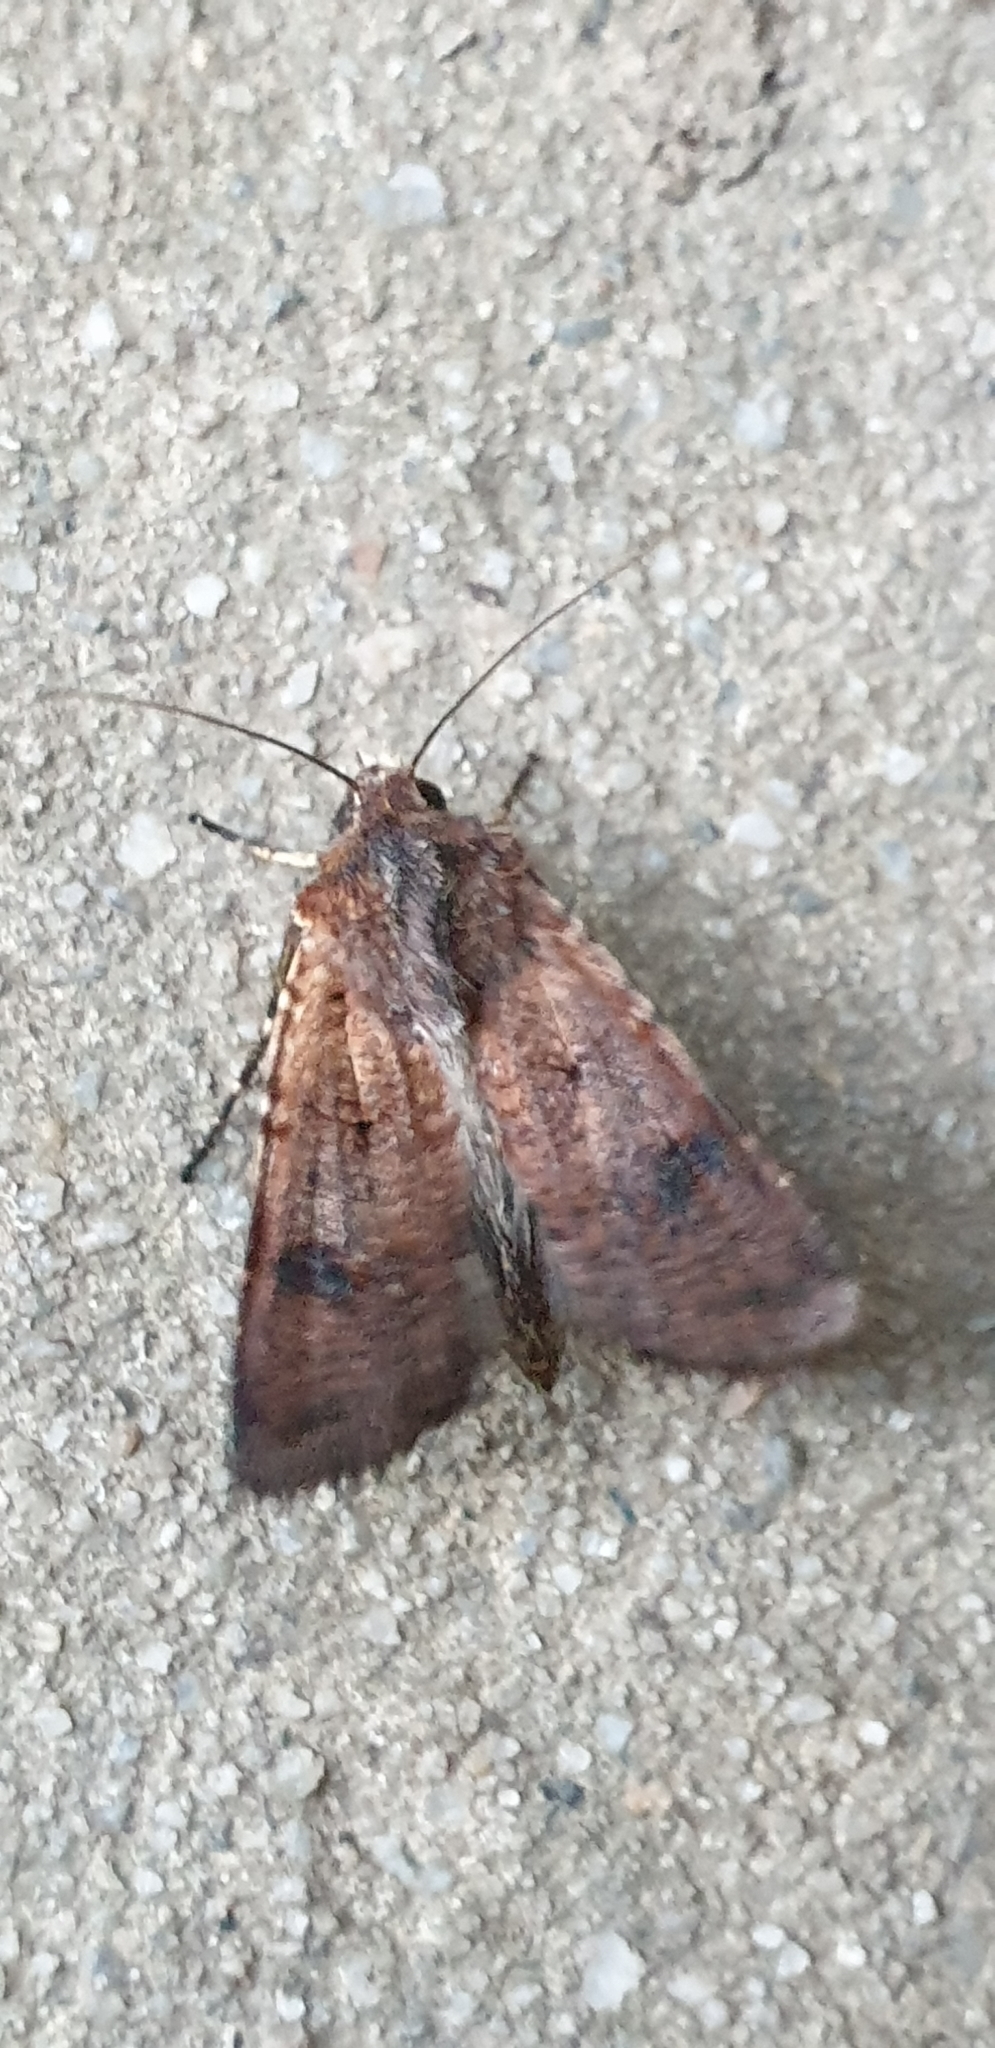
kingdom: Animalia
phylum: Arthropoda
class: Insecta
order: Lepidoptera
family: Noctuidae
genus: Agrotis
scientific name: Agrotis porphyricollis
